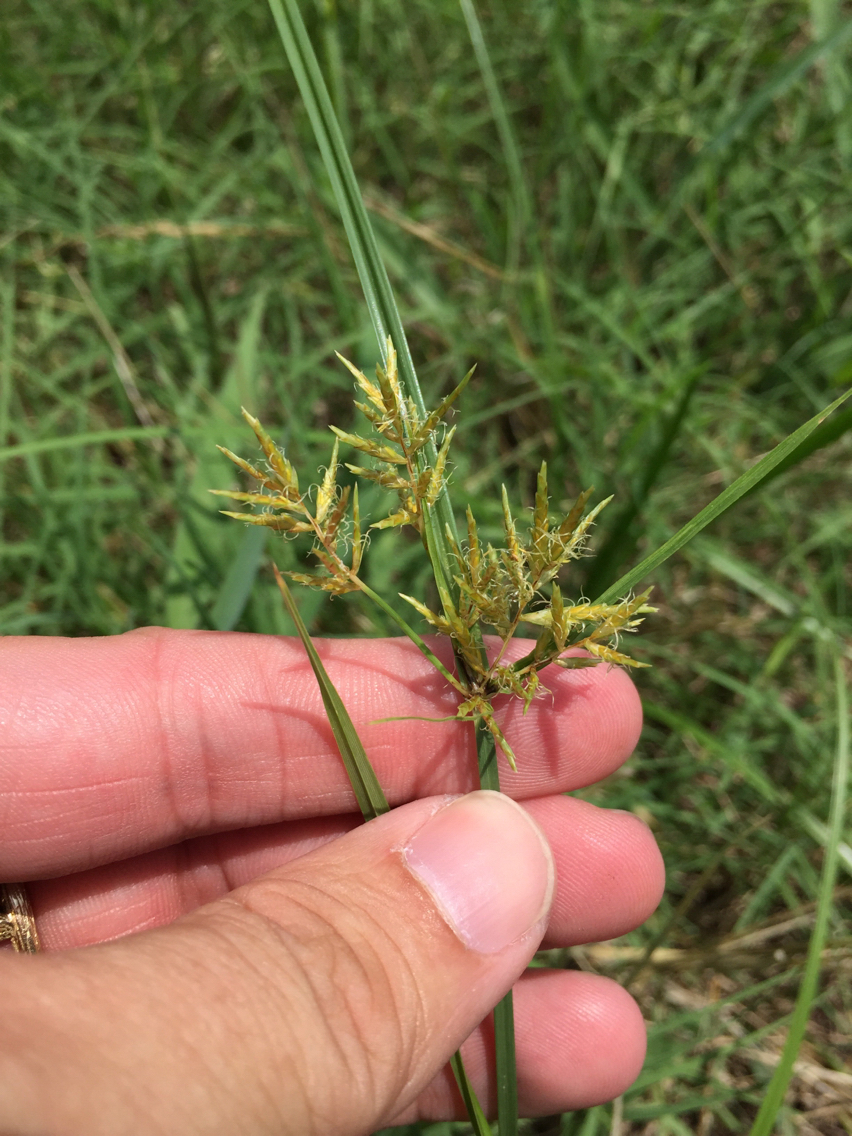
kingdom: Plantae
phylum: Tracheophyta
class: Liliopsida
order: Poales
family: Cyperaceae
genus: Cyperus
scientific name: Cyperus esculentus
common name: Yellow nutsedge
